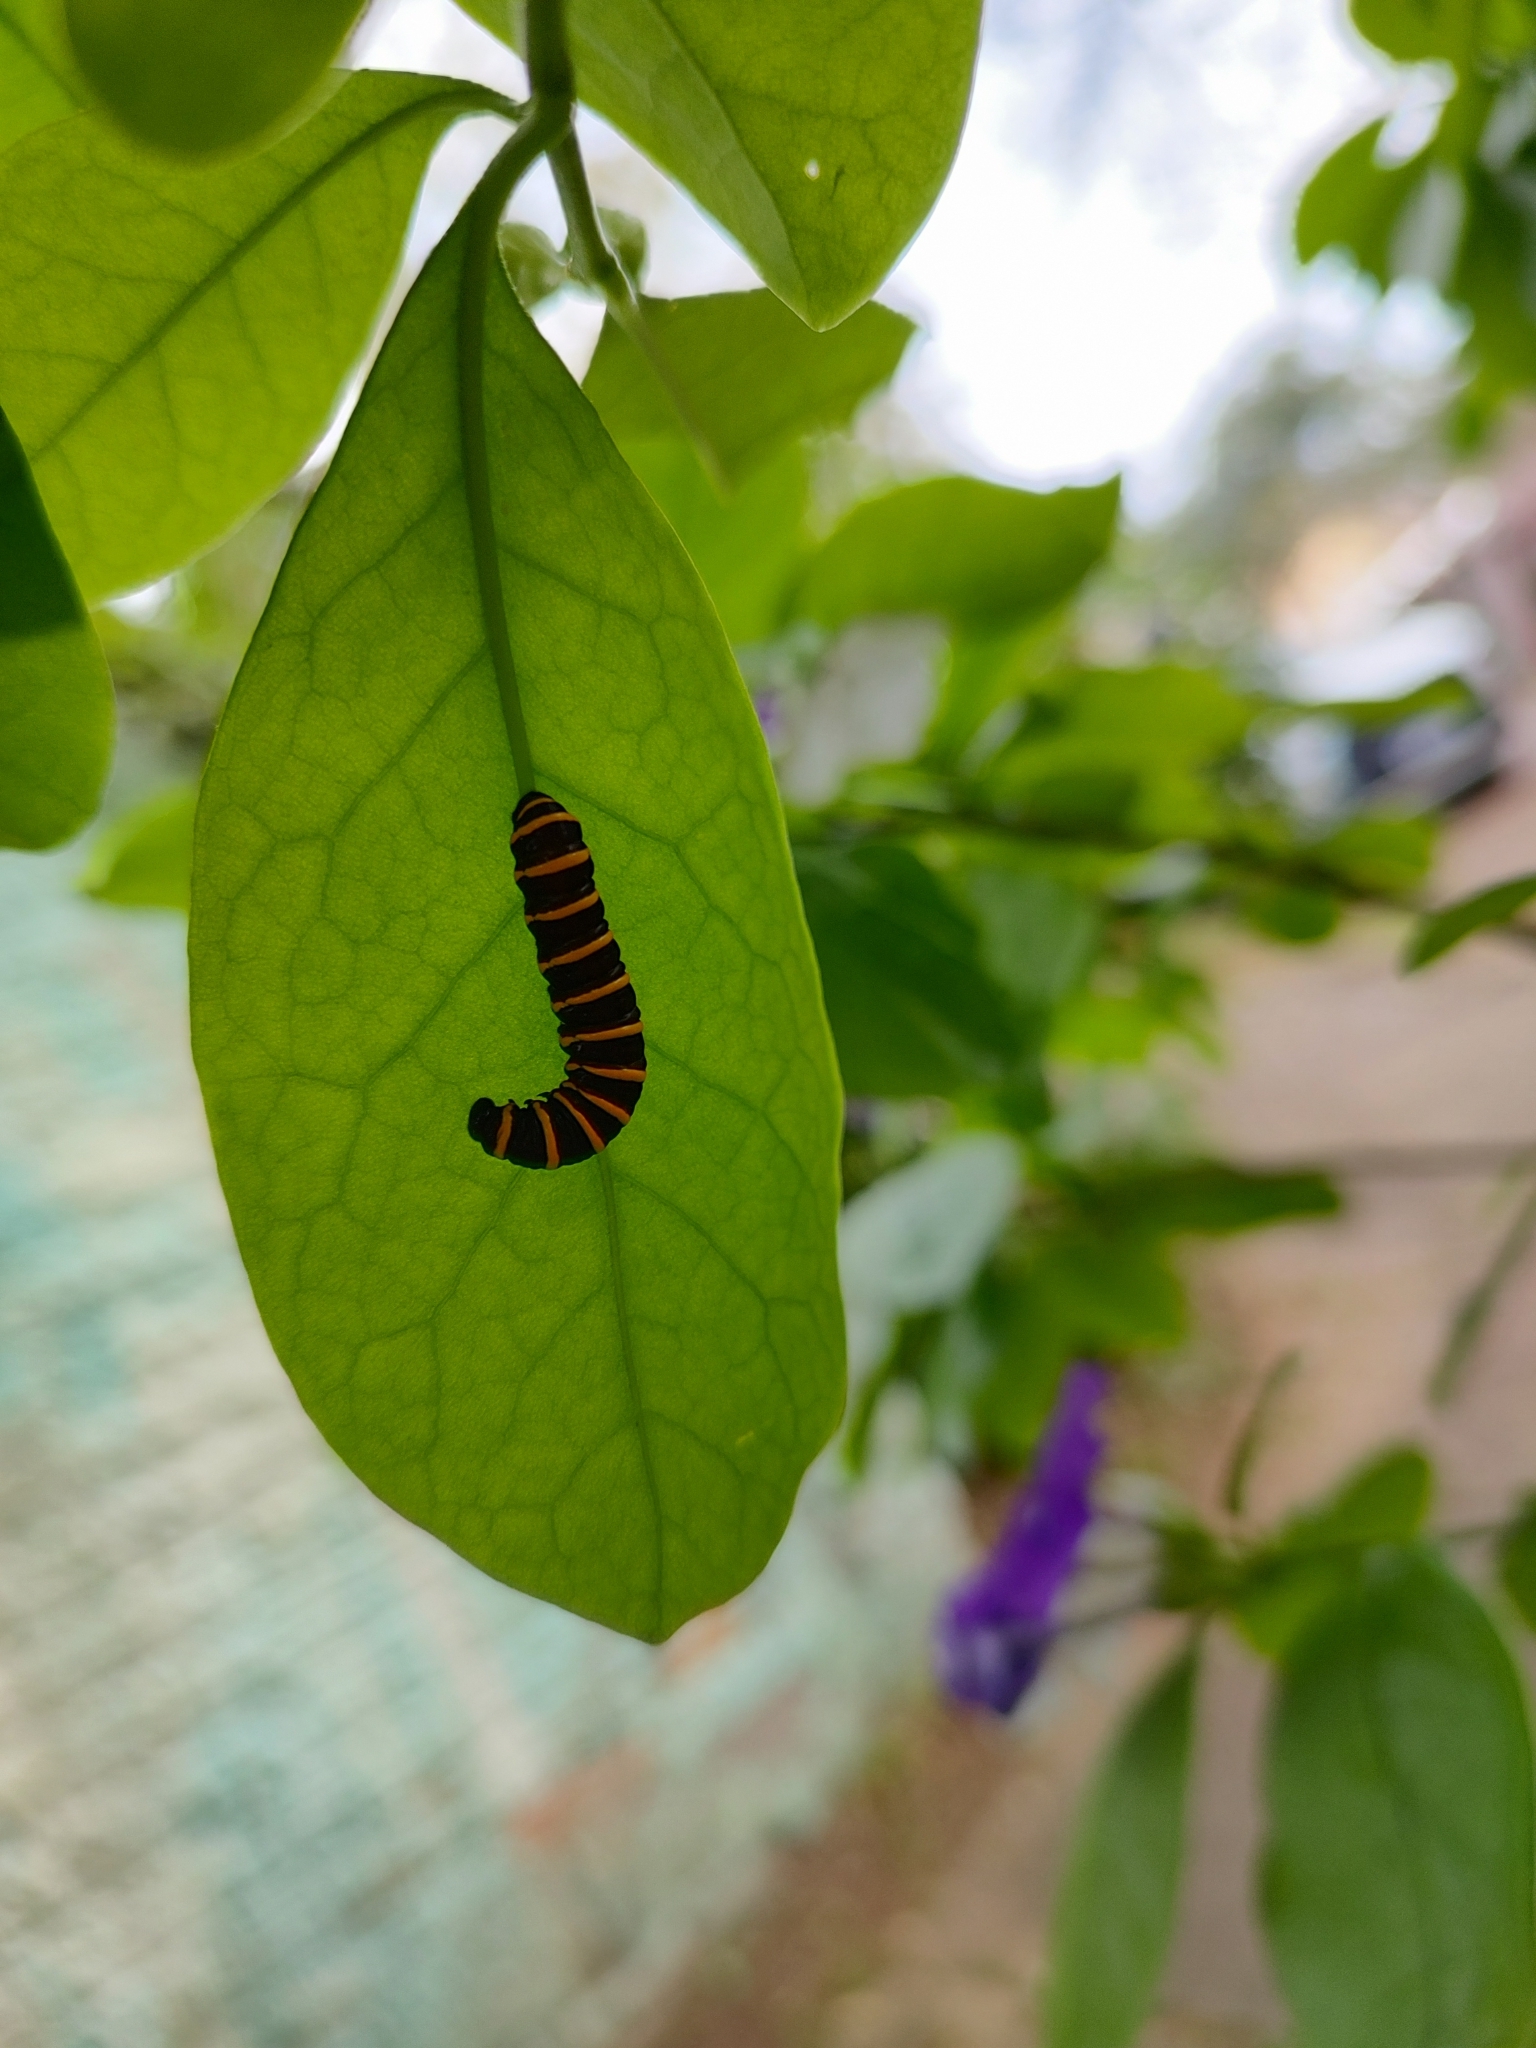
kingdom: Animalia
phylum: Arthropoda
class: Insecta
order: Lepidoptera
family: Nymphalidae
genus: Methona
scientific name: Methona themisto
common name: Themisto amberwing
